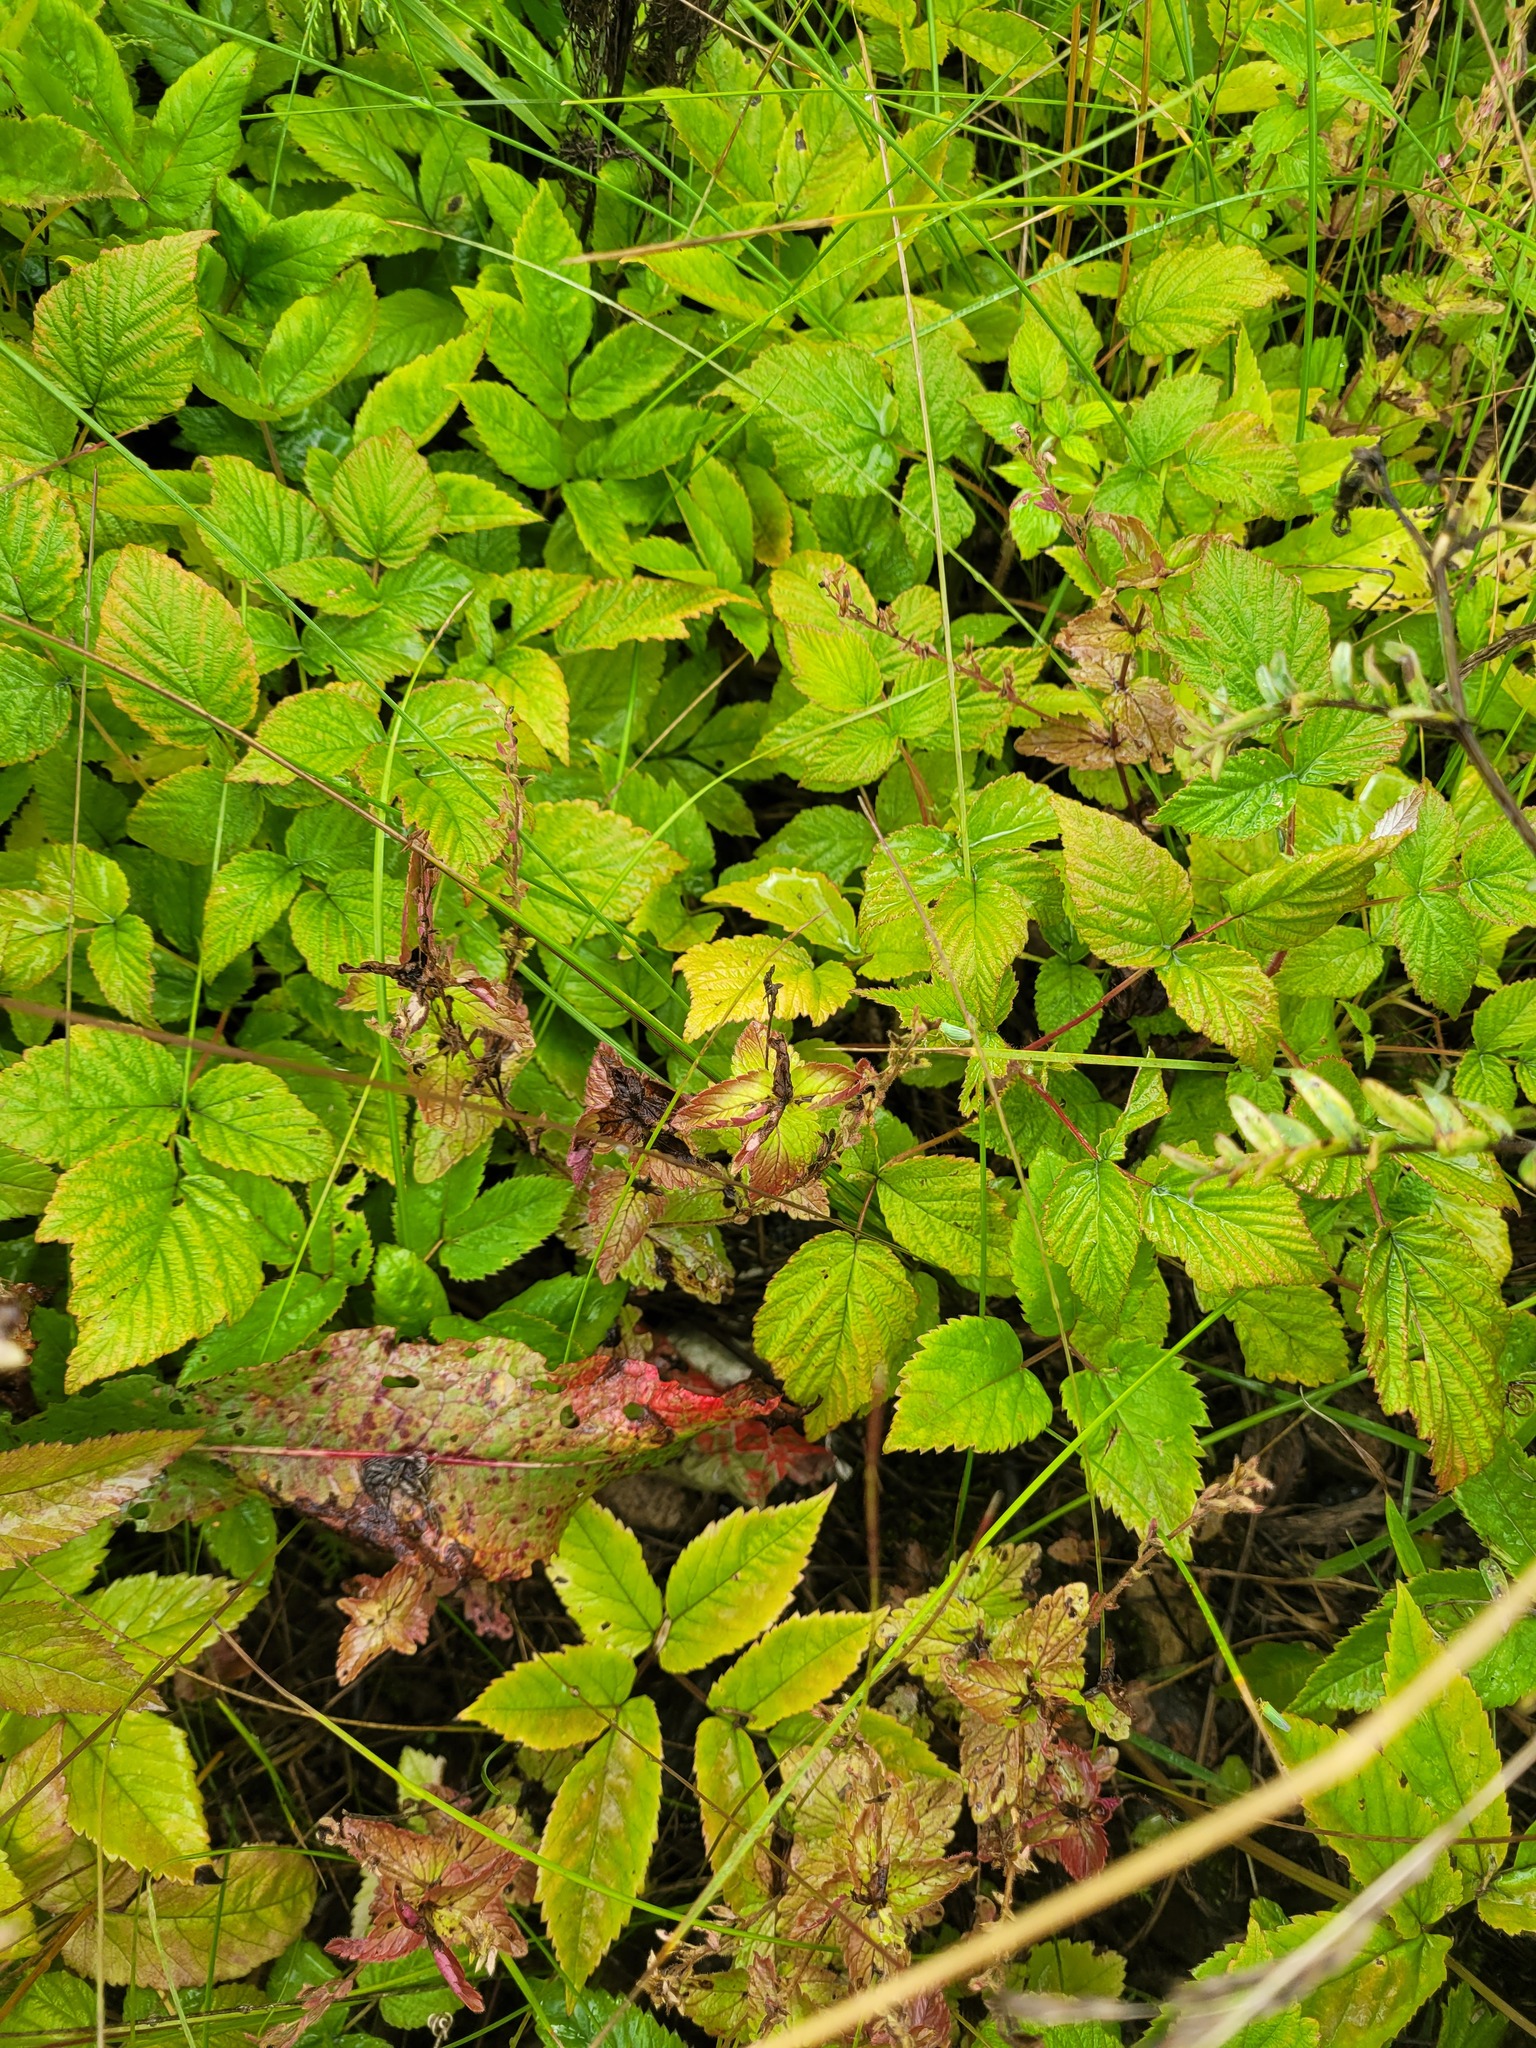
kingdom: Plantae
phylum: Tracheophyta
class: Magnoliopsida
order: Lamiales
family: Plantaginaceae
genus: Veronica
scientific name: Veronica chamaedrys
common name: Germander speedwell
